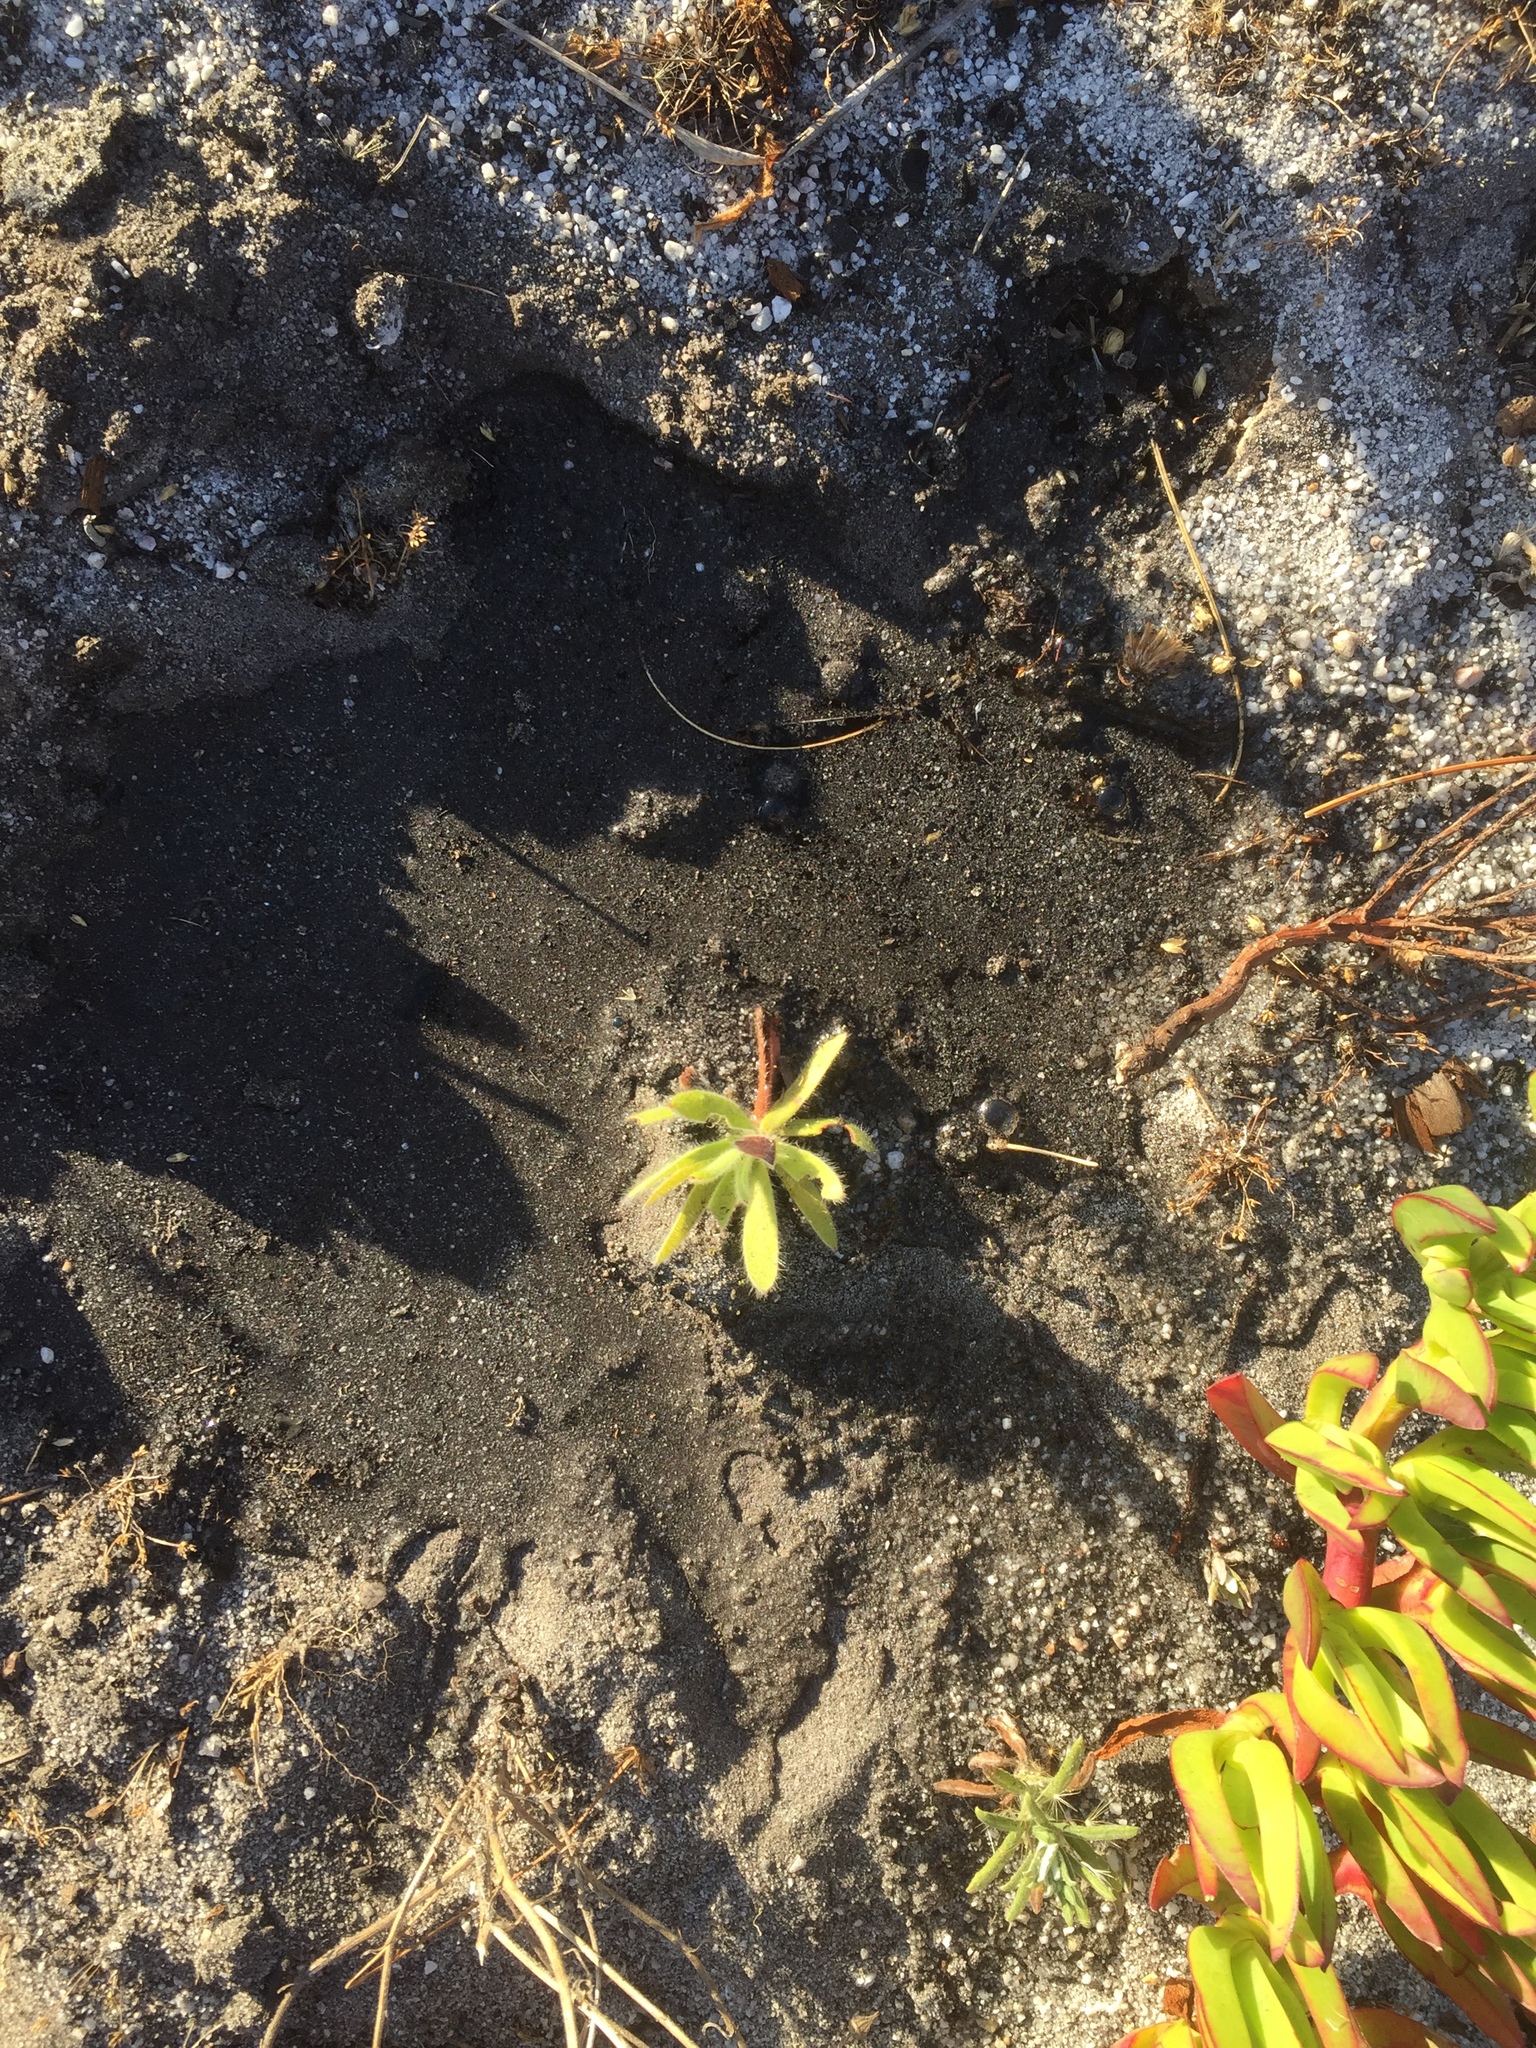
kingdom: Plantae
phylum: Tracheophyta
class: Magnoliopsida
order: Proteales
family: Proteaceae
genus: Leucospermum
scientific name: Leucospermum conocarpodendron
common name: Tree pincushion
